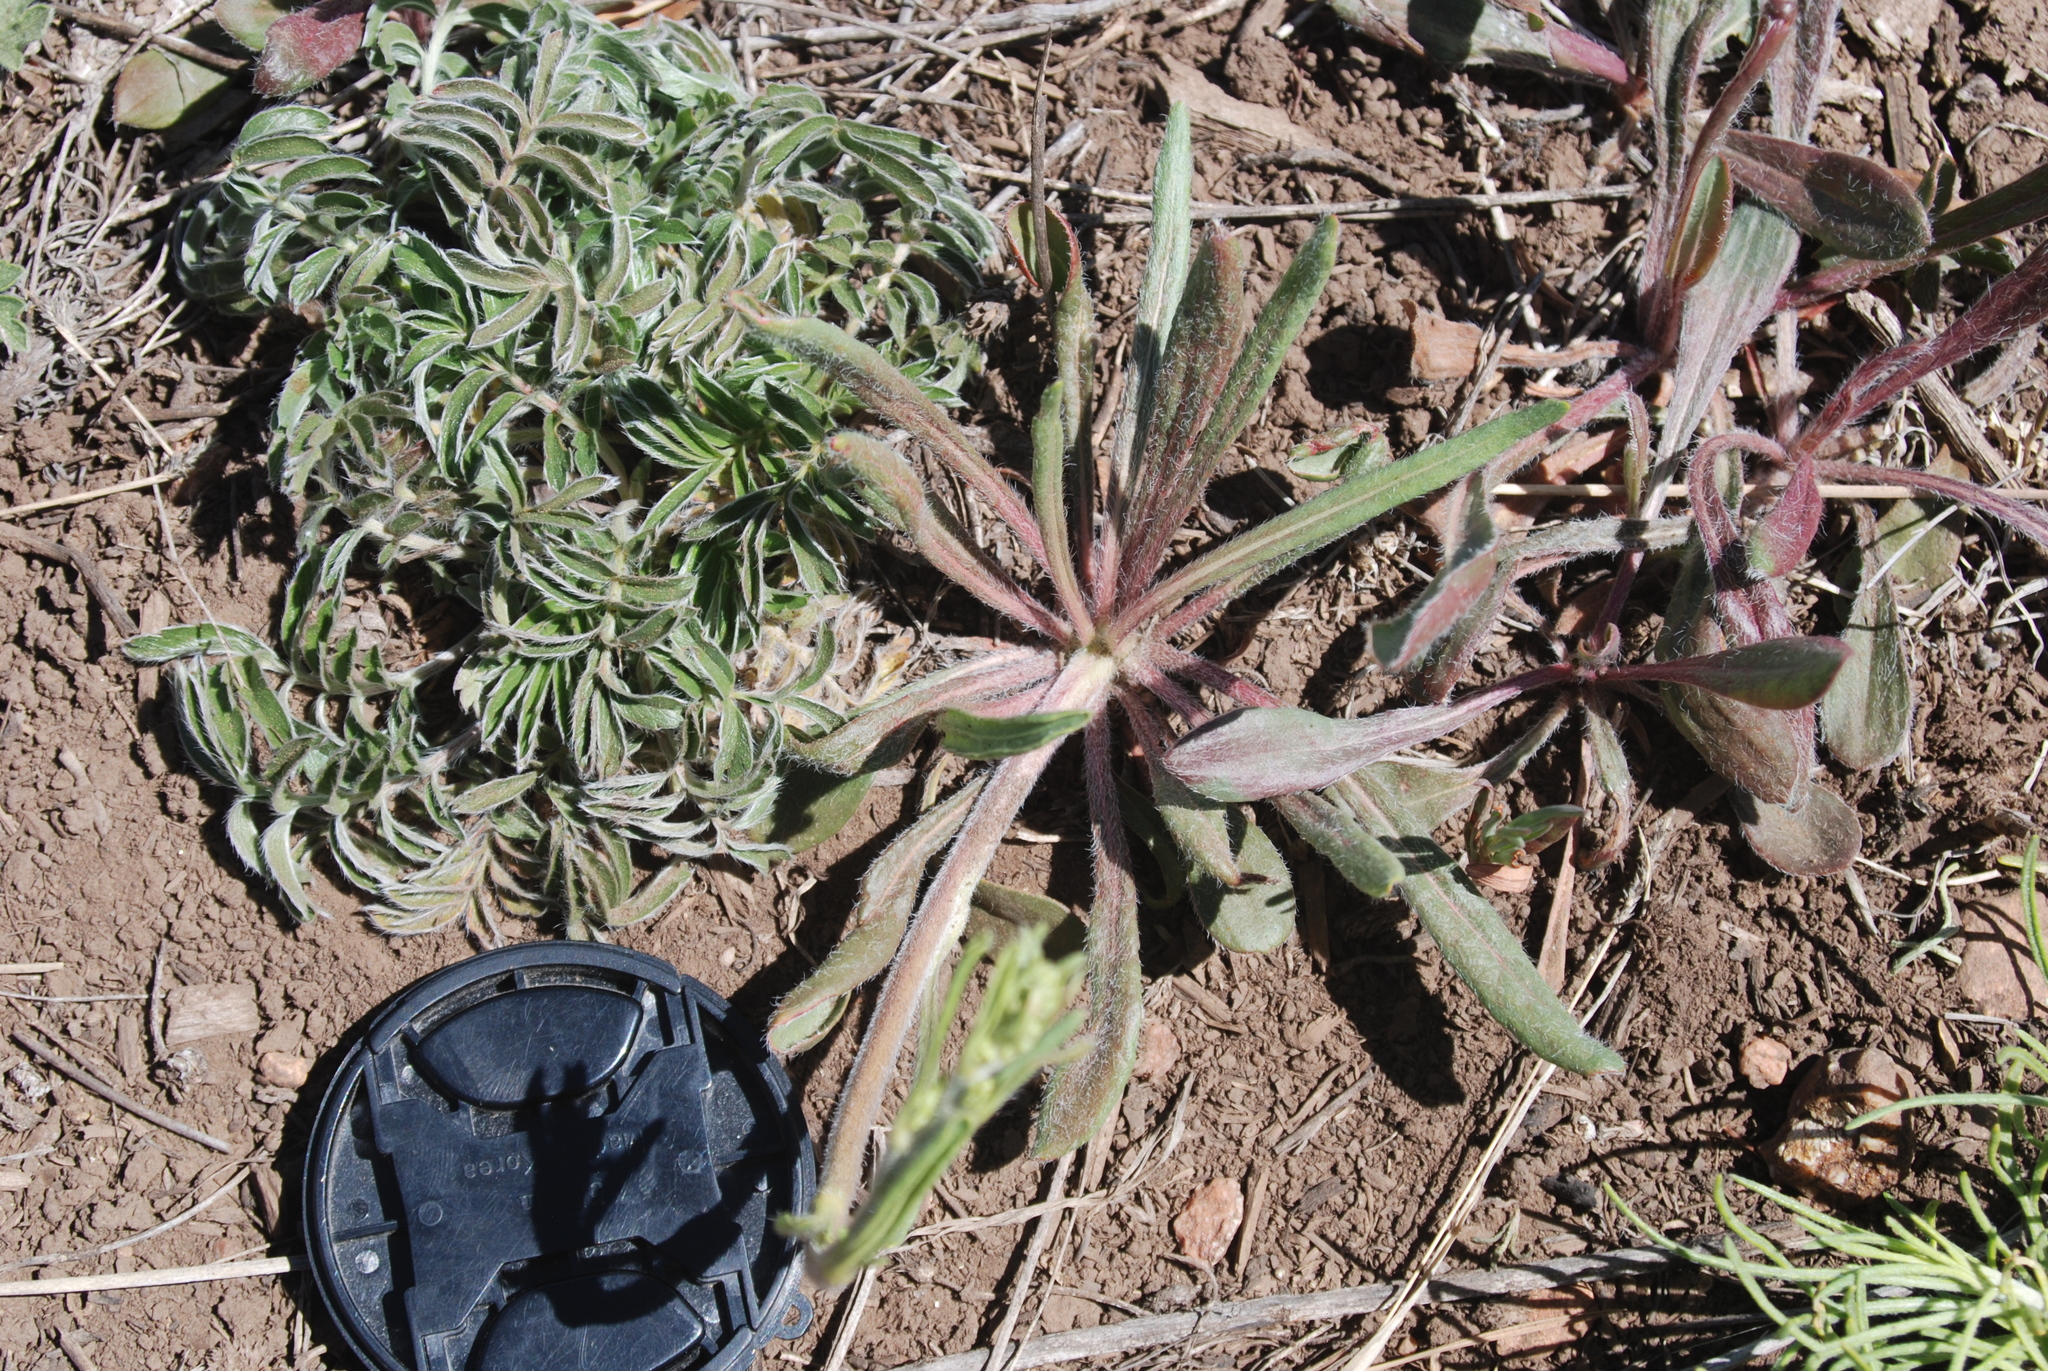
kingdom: Plantae
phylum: Tracheophyta
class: Magnoliopsida
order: Rosales
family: Rosaceae
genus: Potentilla
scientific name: Potentilla hippiana
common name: Woolly cinquefoil
